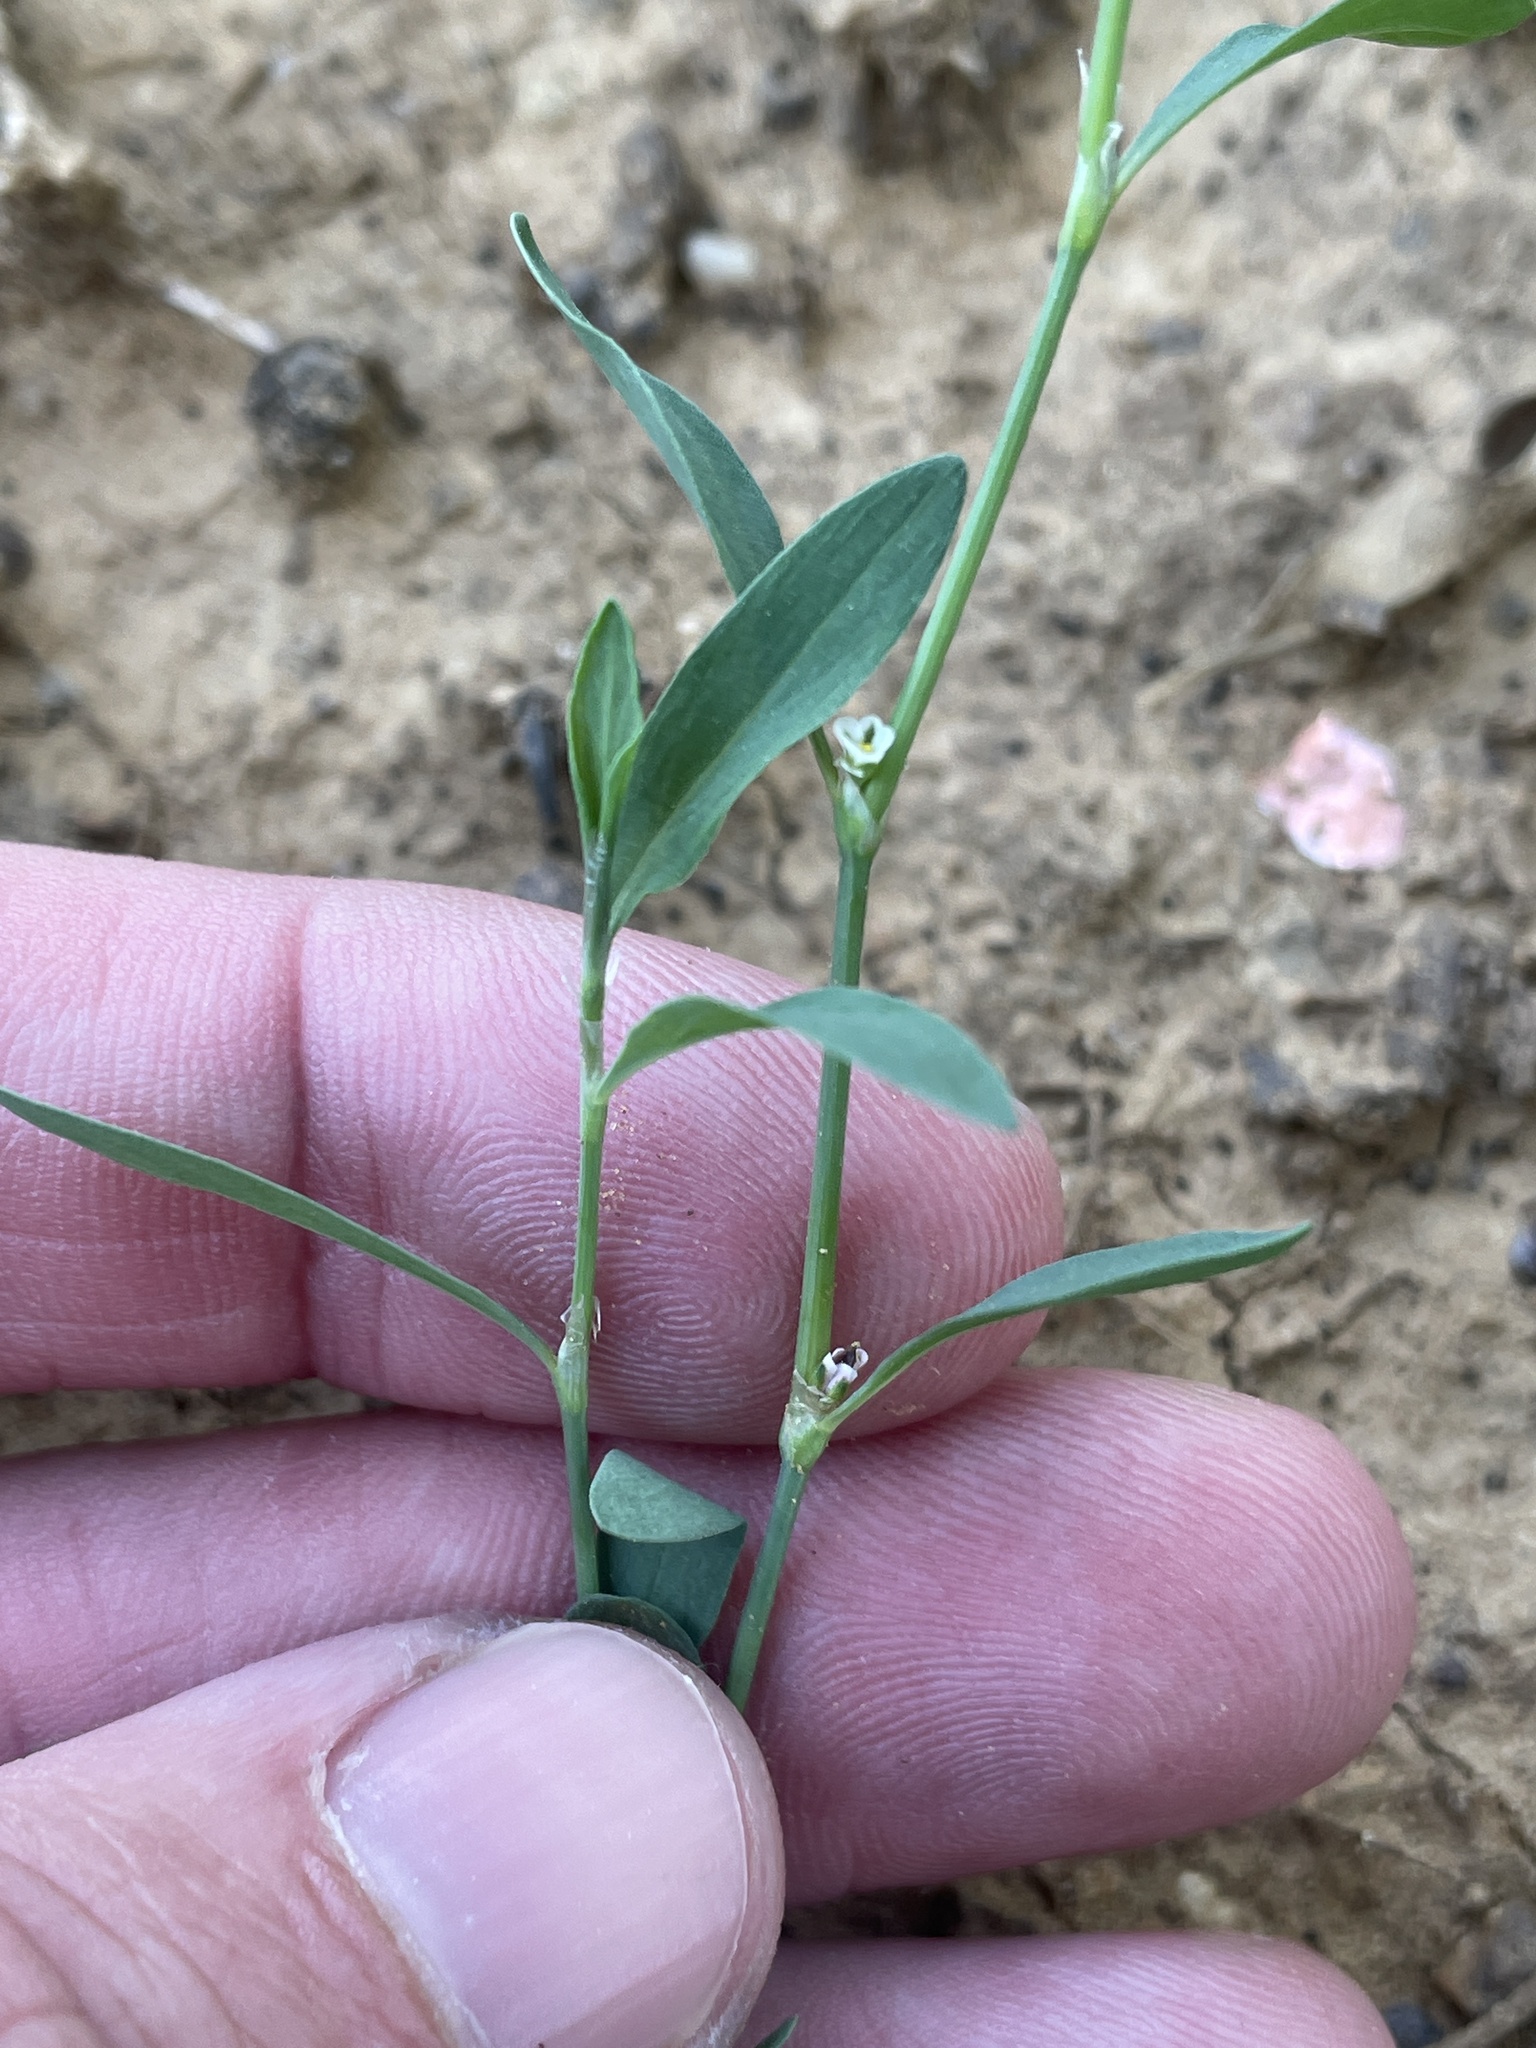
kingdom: Plantae
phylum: Tracheophyta
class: Magnoliopsida
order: Caryophyllales
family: Polygonaceae
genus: Polygonum
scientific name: Polygonum aviculare
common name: Prostrate knotweed
